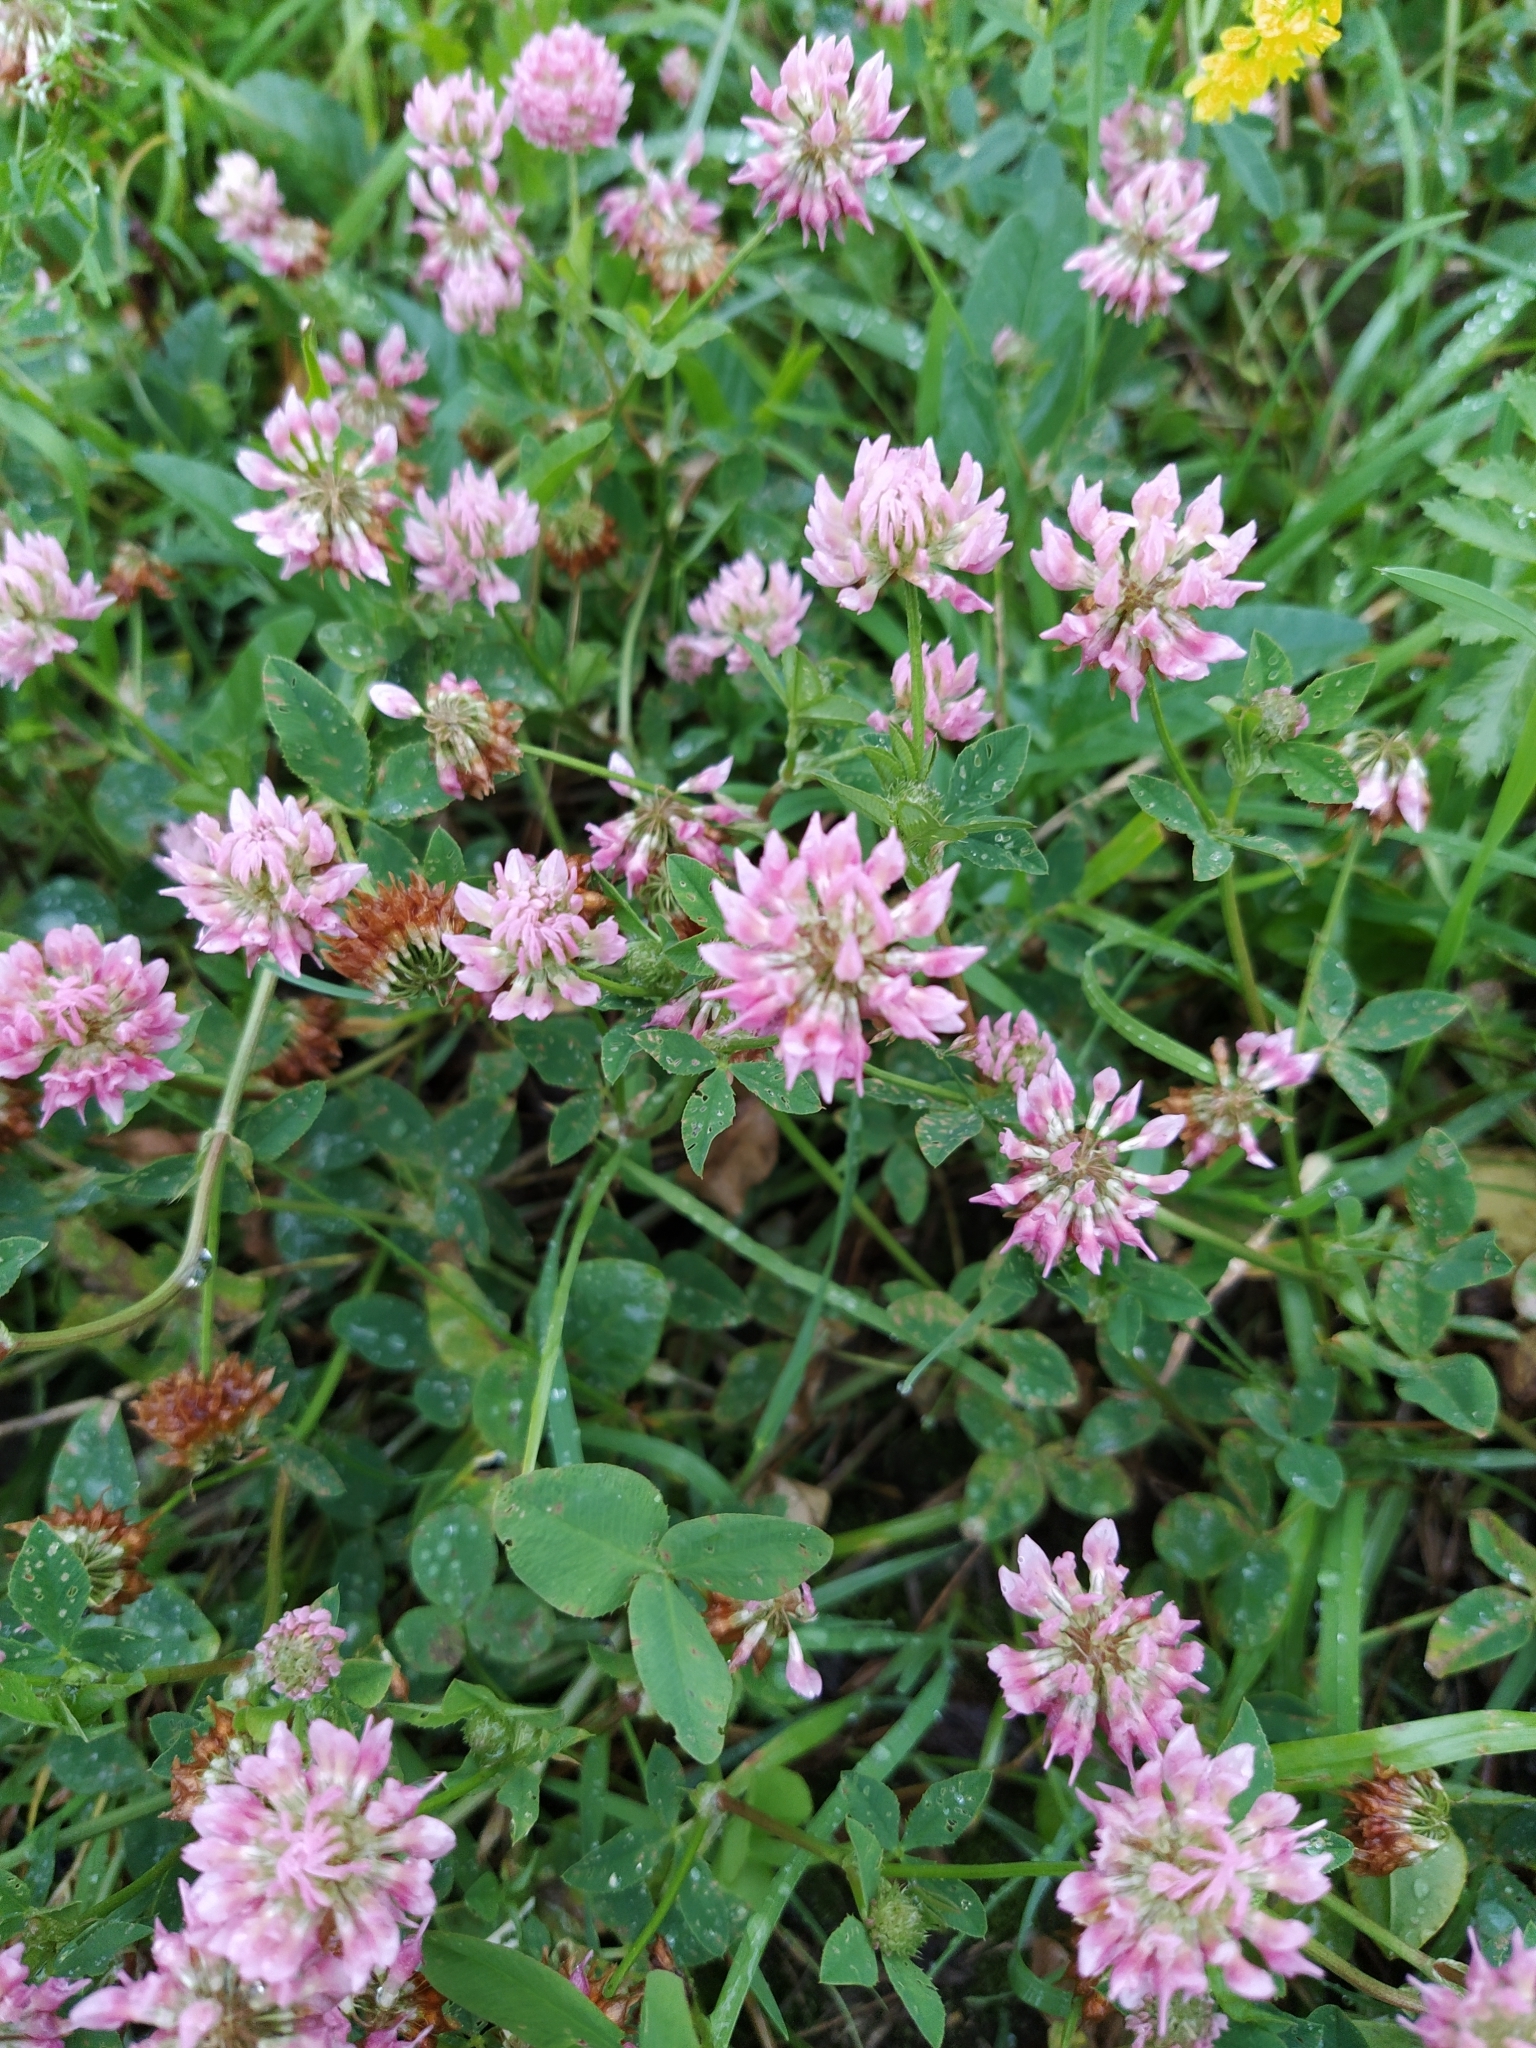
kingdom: Plantae
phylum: Tracheophyta
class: Magnoliopsida
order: Fabales
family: Fabaceae
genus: Trifolium
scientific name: Trifolium hybridum
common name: Alsike clover
